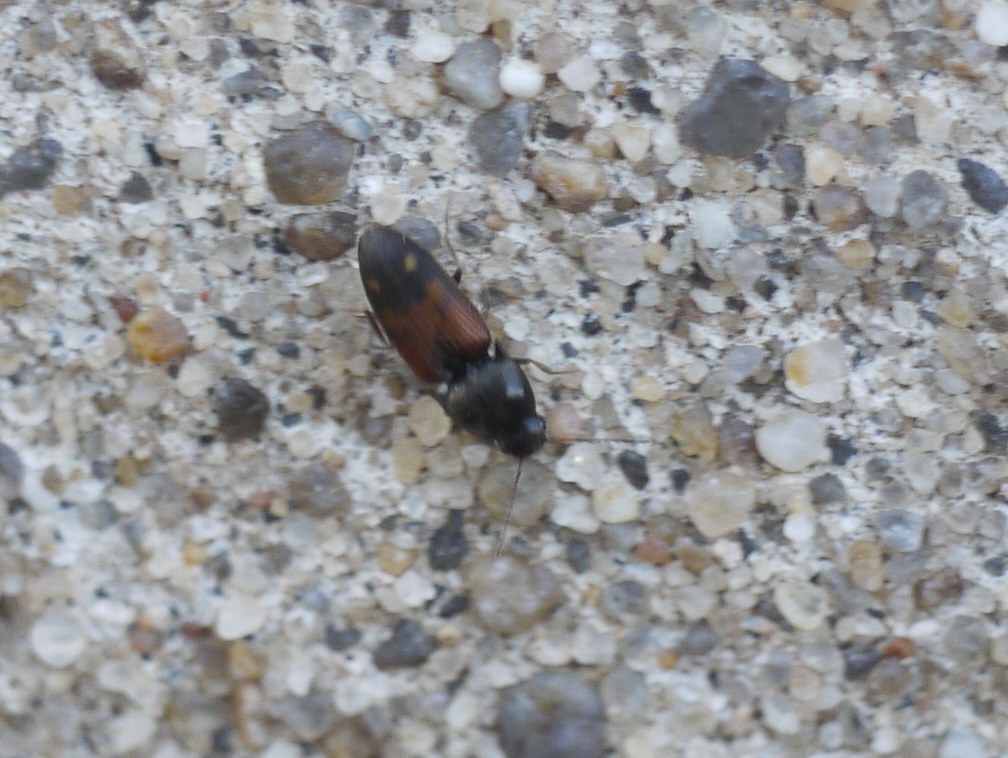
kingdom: Animalia
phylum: Arthropoda
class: Insecta
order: Coleoptera
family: Elateridae
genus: Drasterius
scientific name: Drasterius bimaculatus
